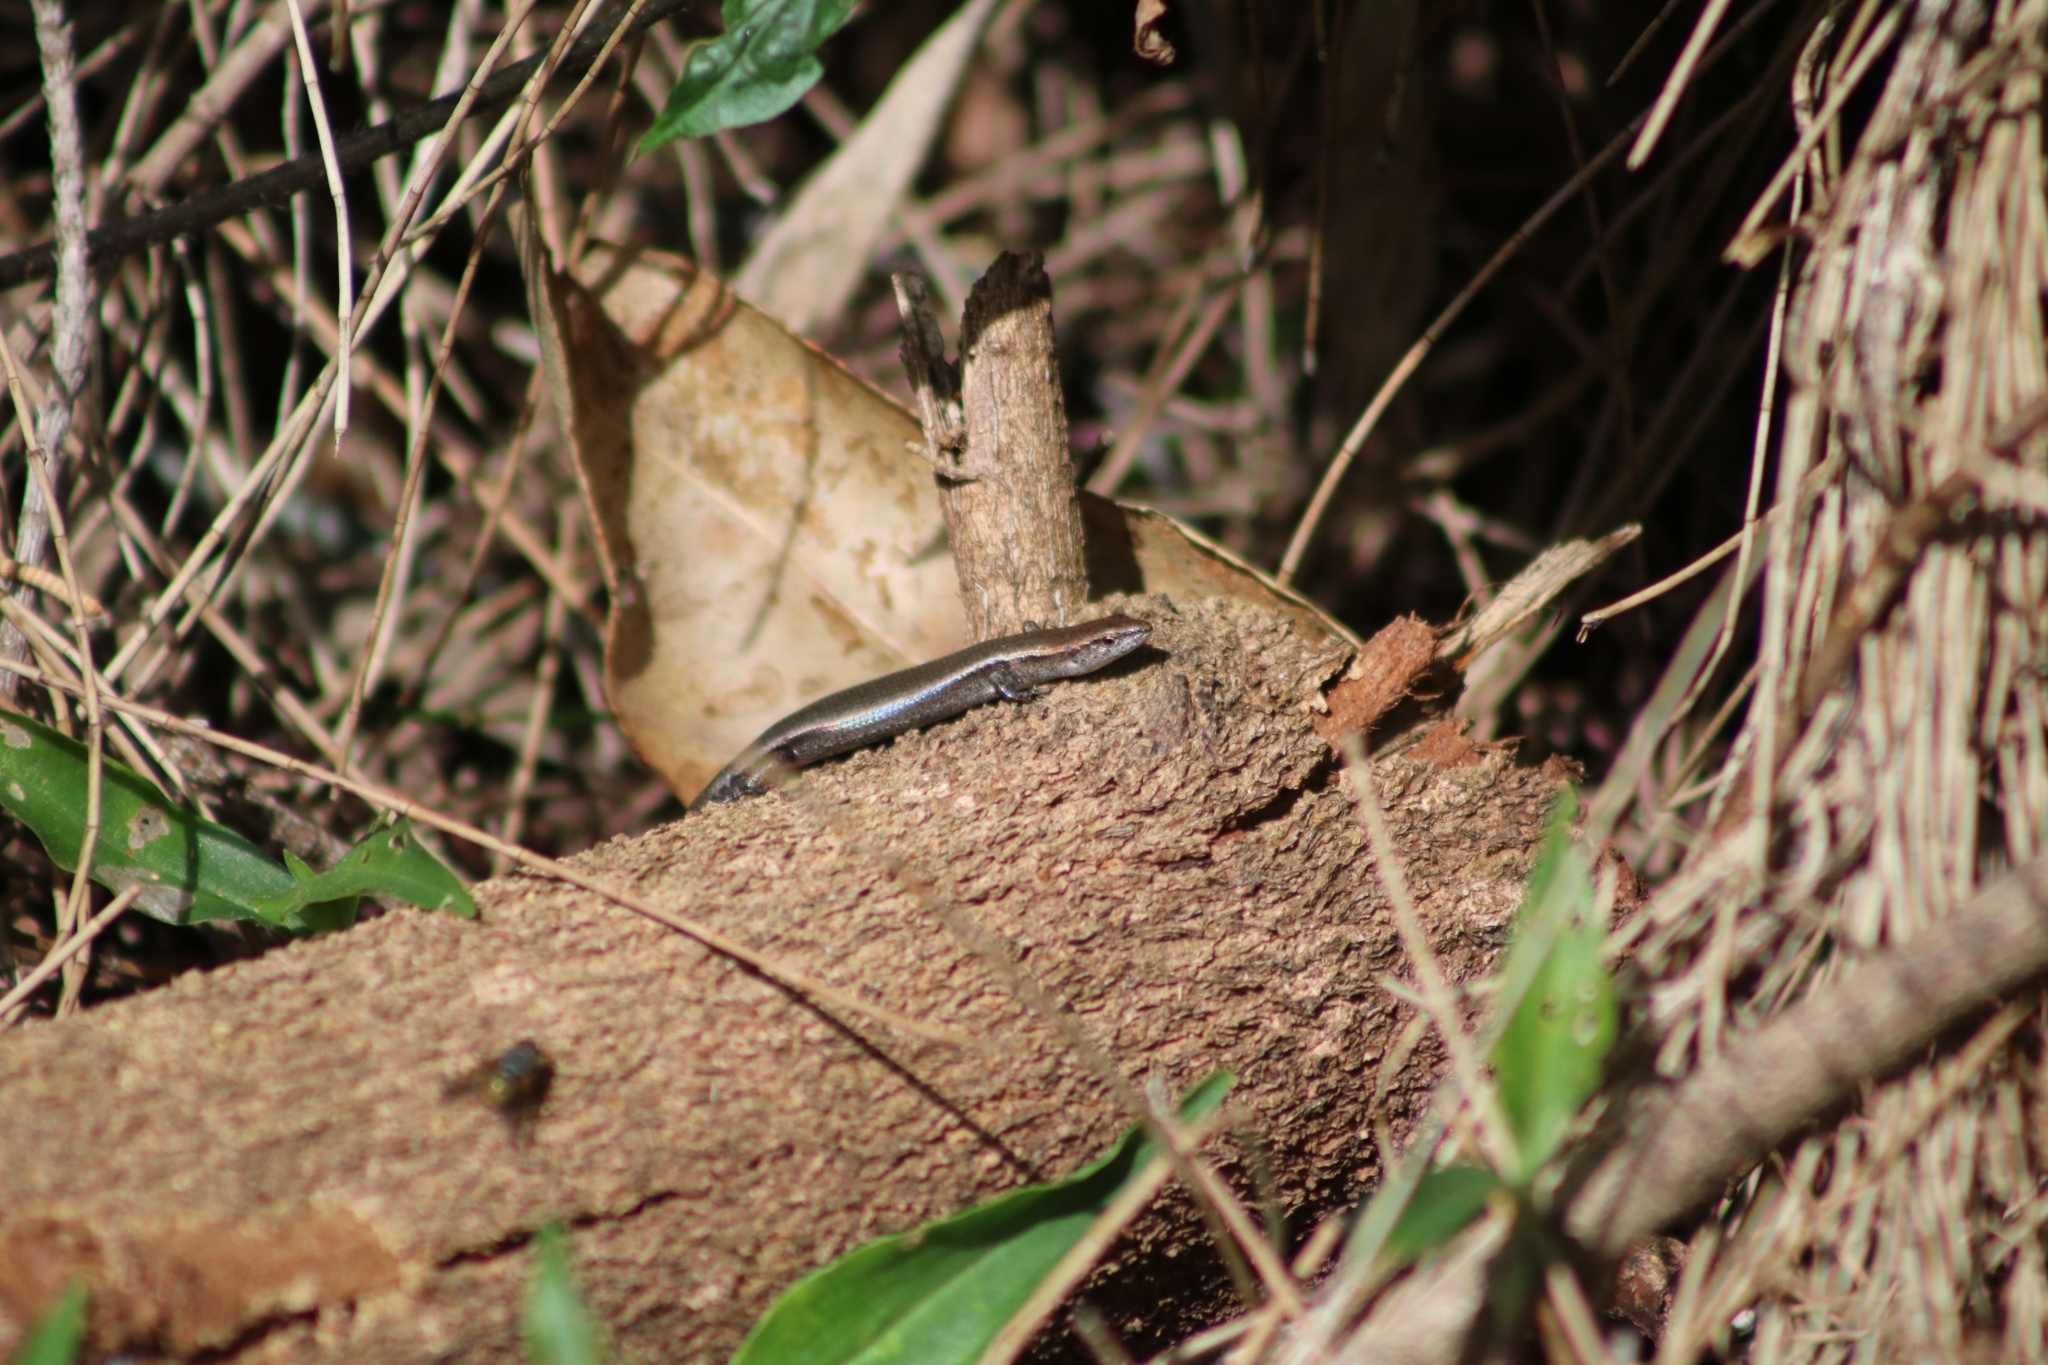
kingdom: Animalia
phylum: Chordata
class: Squamata
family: Scincidae
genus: Lampropholis
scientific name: Lampropholis delicata
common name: Plague skink
